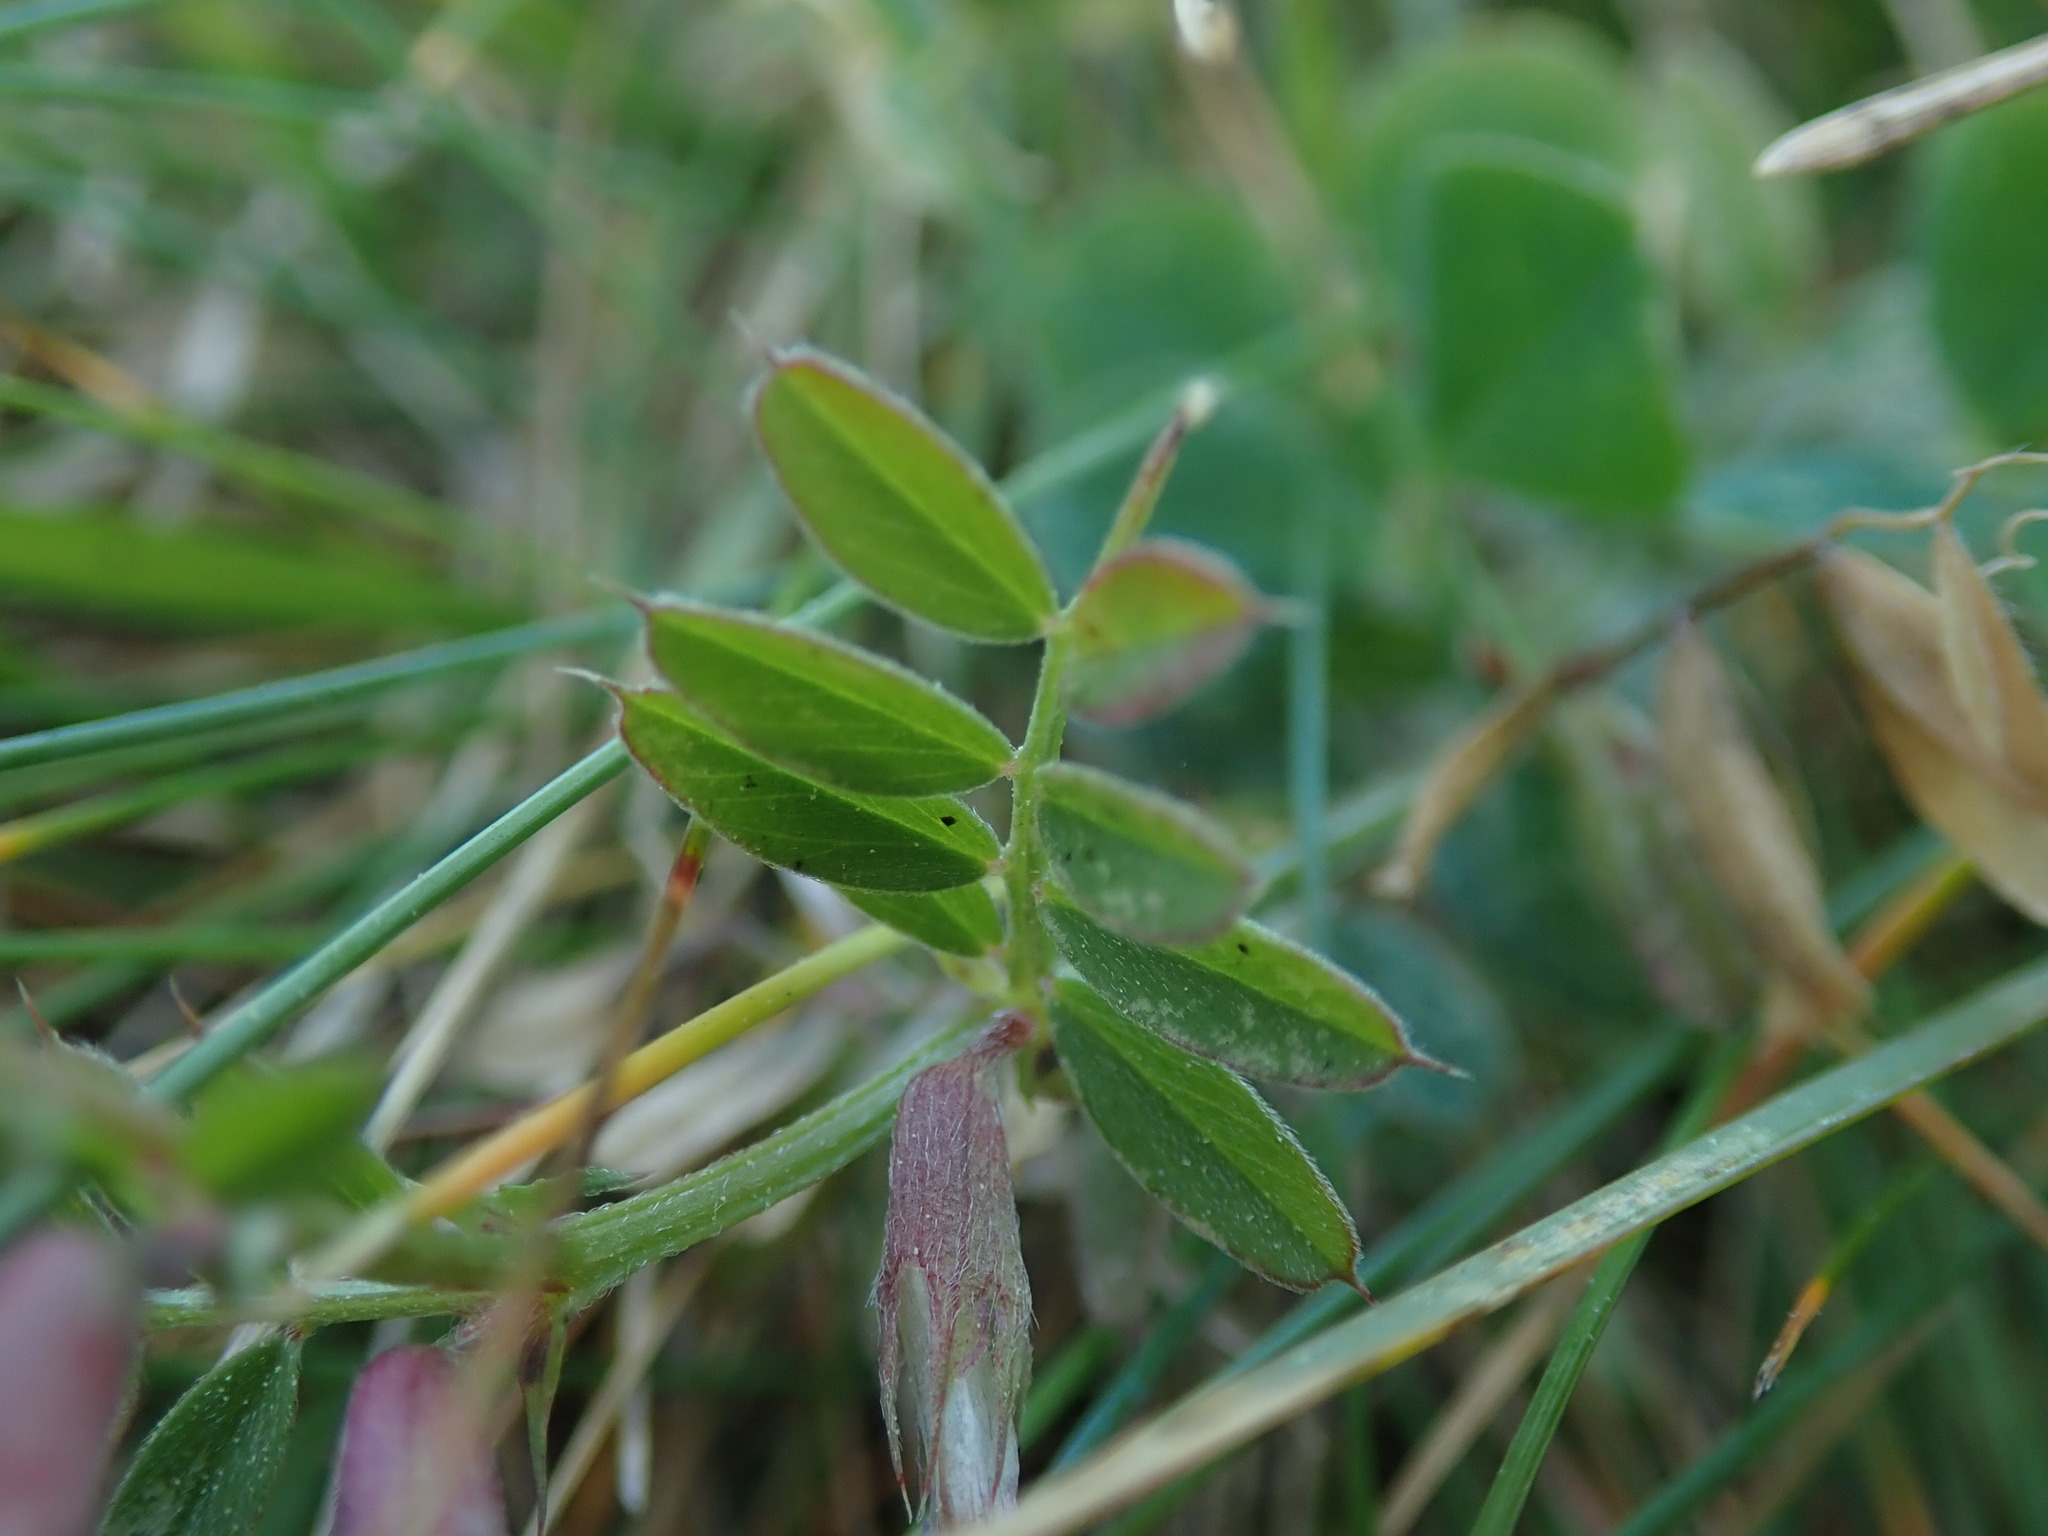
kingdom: Plantae
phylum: Tracheophyta
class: Magnoliopsida
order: Fabales
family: Fabaceae
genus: Vicia
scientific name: Vicia sativa
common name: Garden vetch
